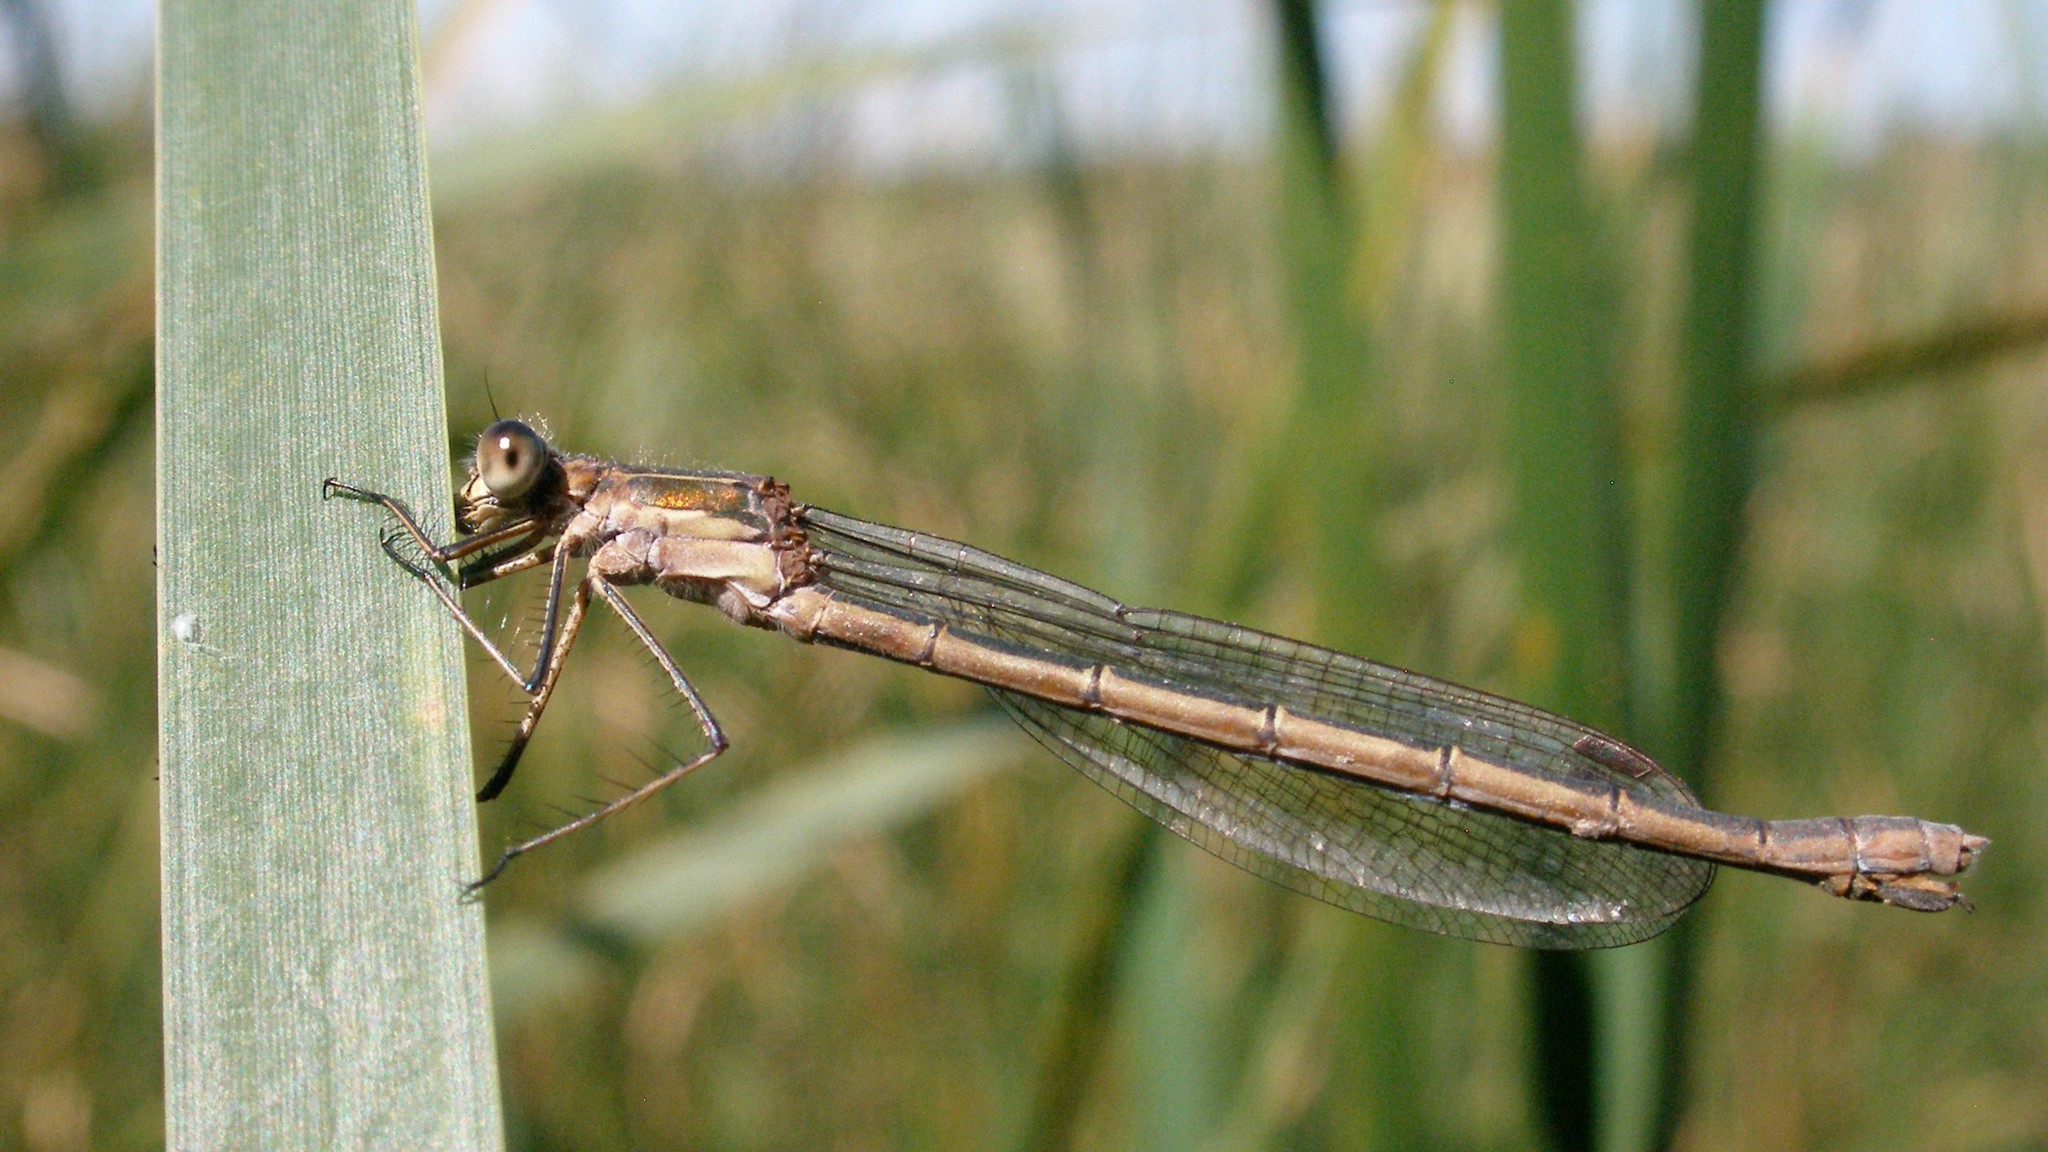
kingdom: Animalia
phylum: Arthropoda
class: Insecta
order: Odonata
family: Lestidae
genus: Lestes
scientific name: Lestes sponsa
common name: Common spreadwing
